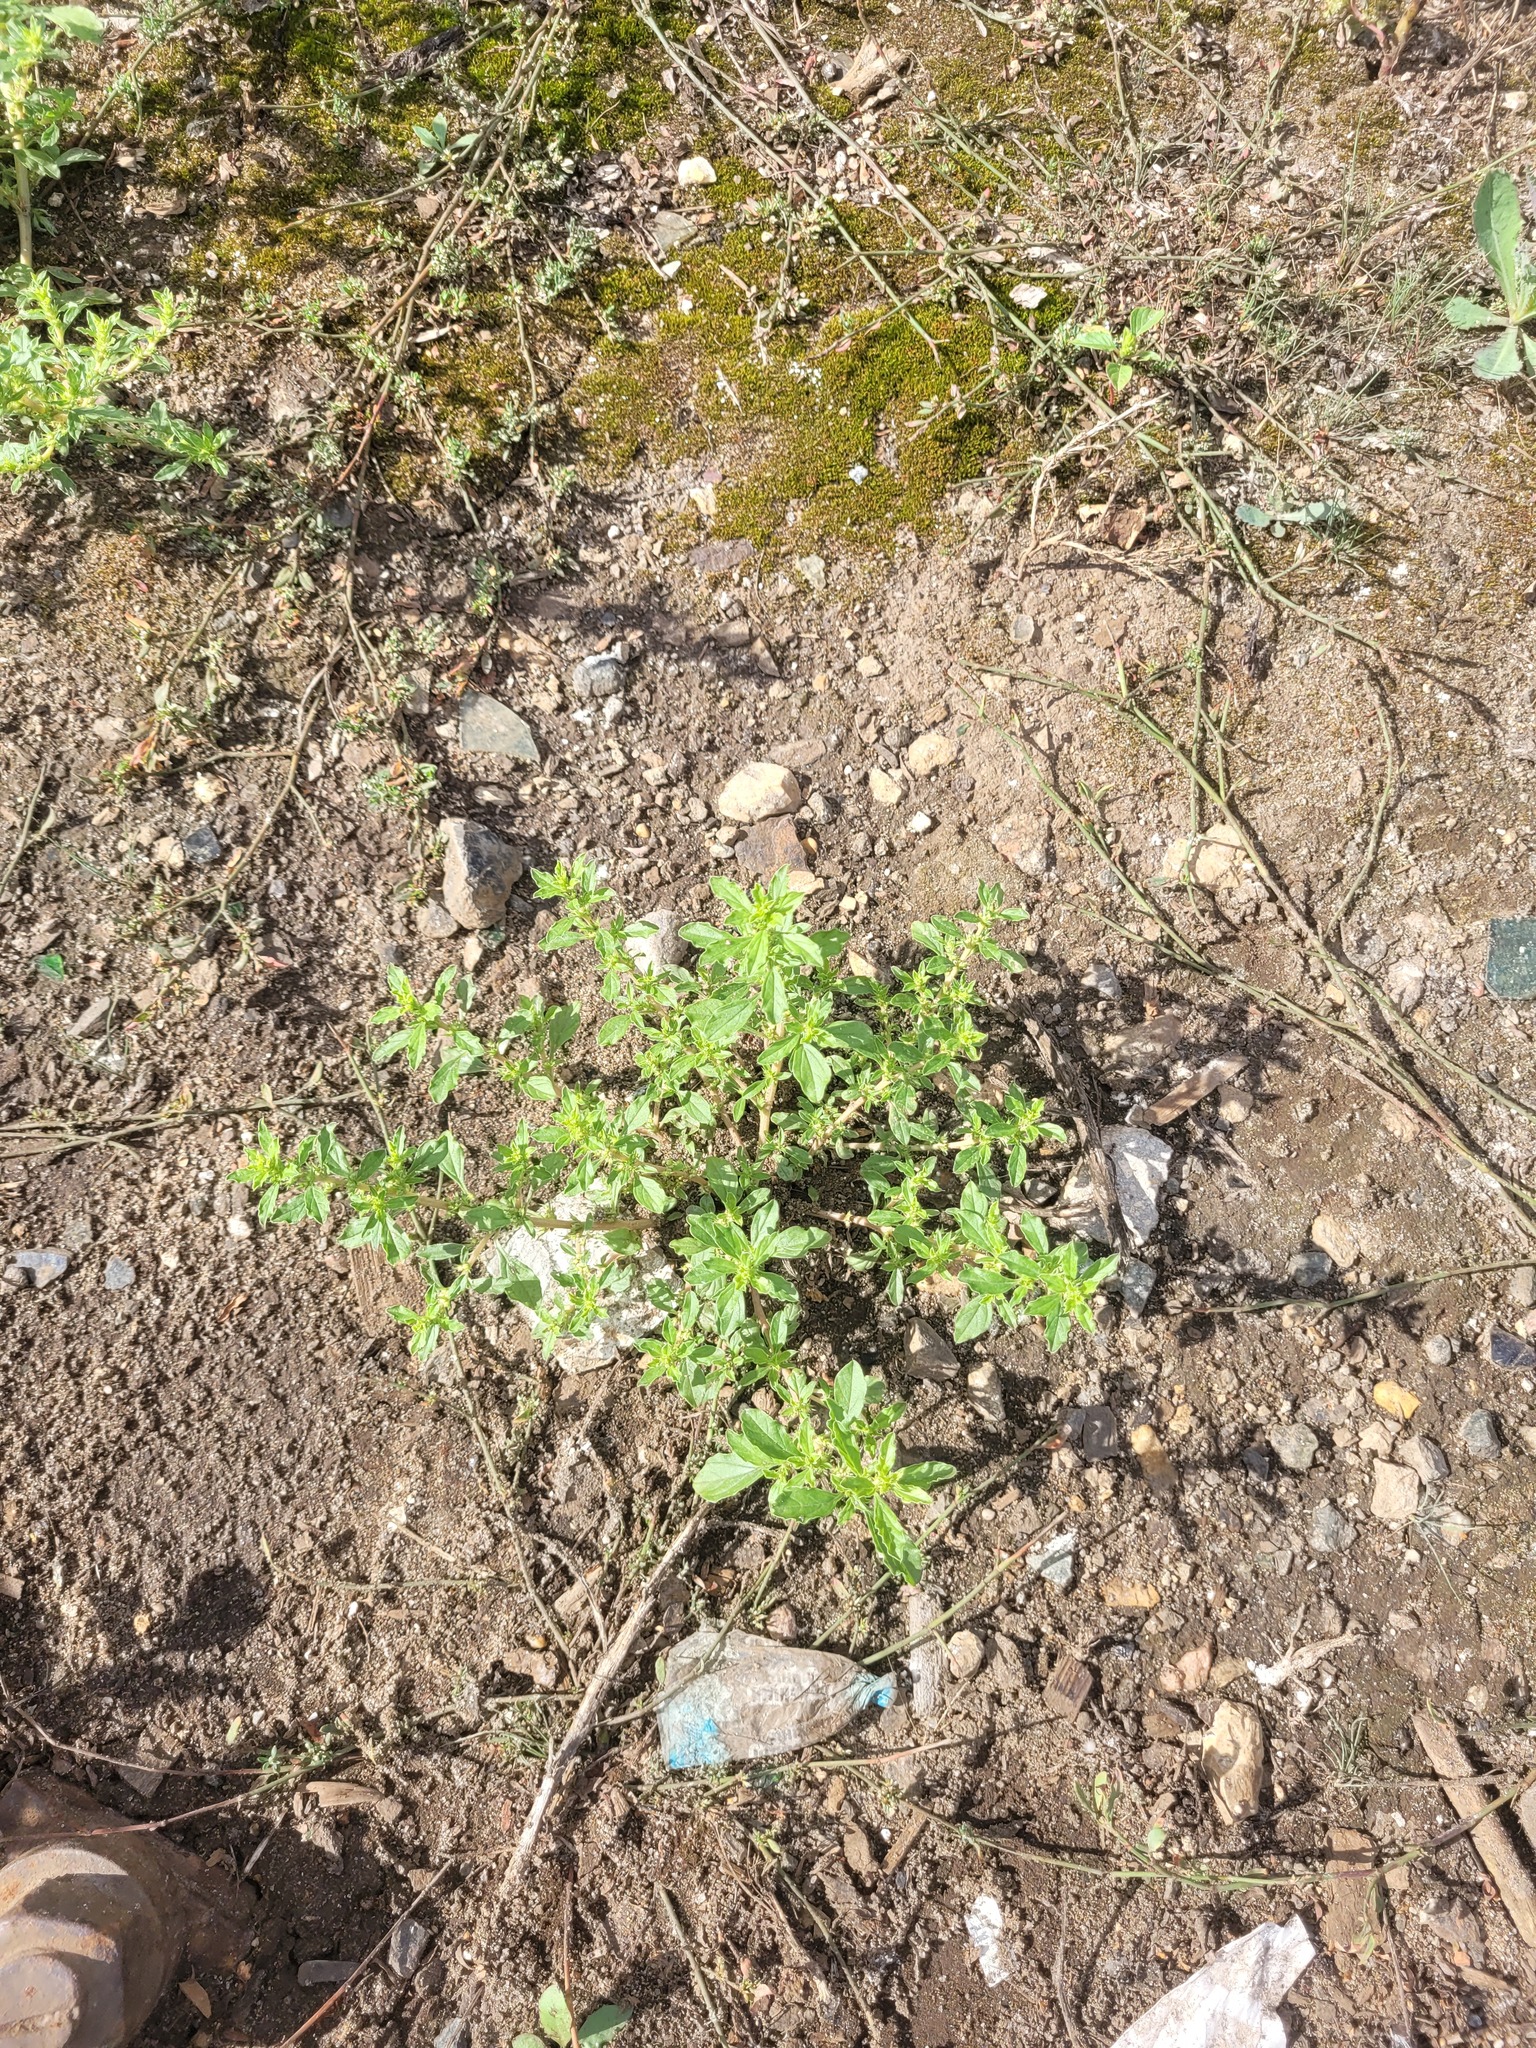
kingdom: Plantae
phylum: Tracheophyta
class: Magnoliopsida
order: Caryophyllales
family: Amaranthaceae
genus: Amaranthus
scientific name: Amaranthus albus
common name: White pigweed
